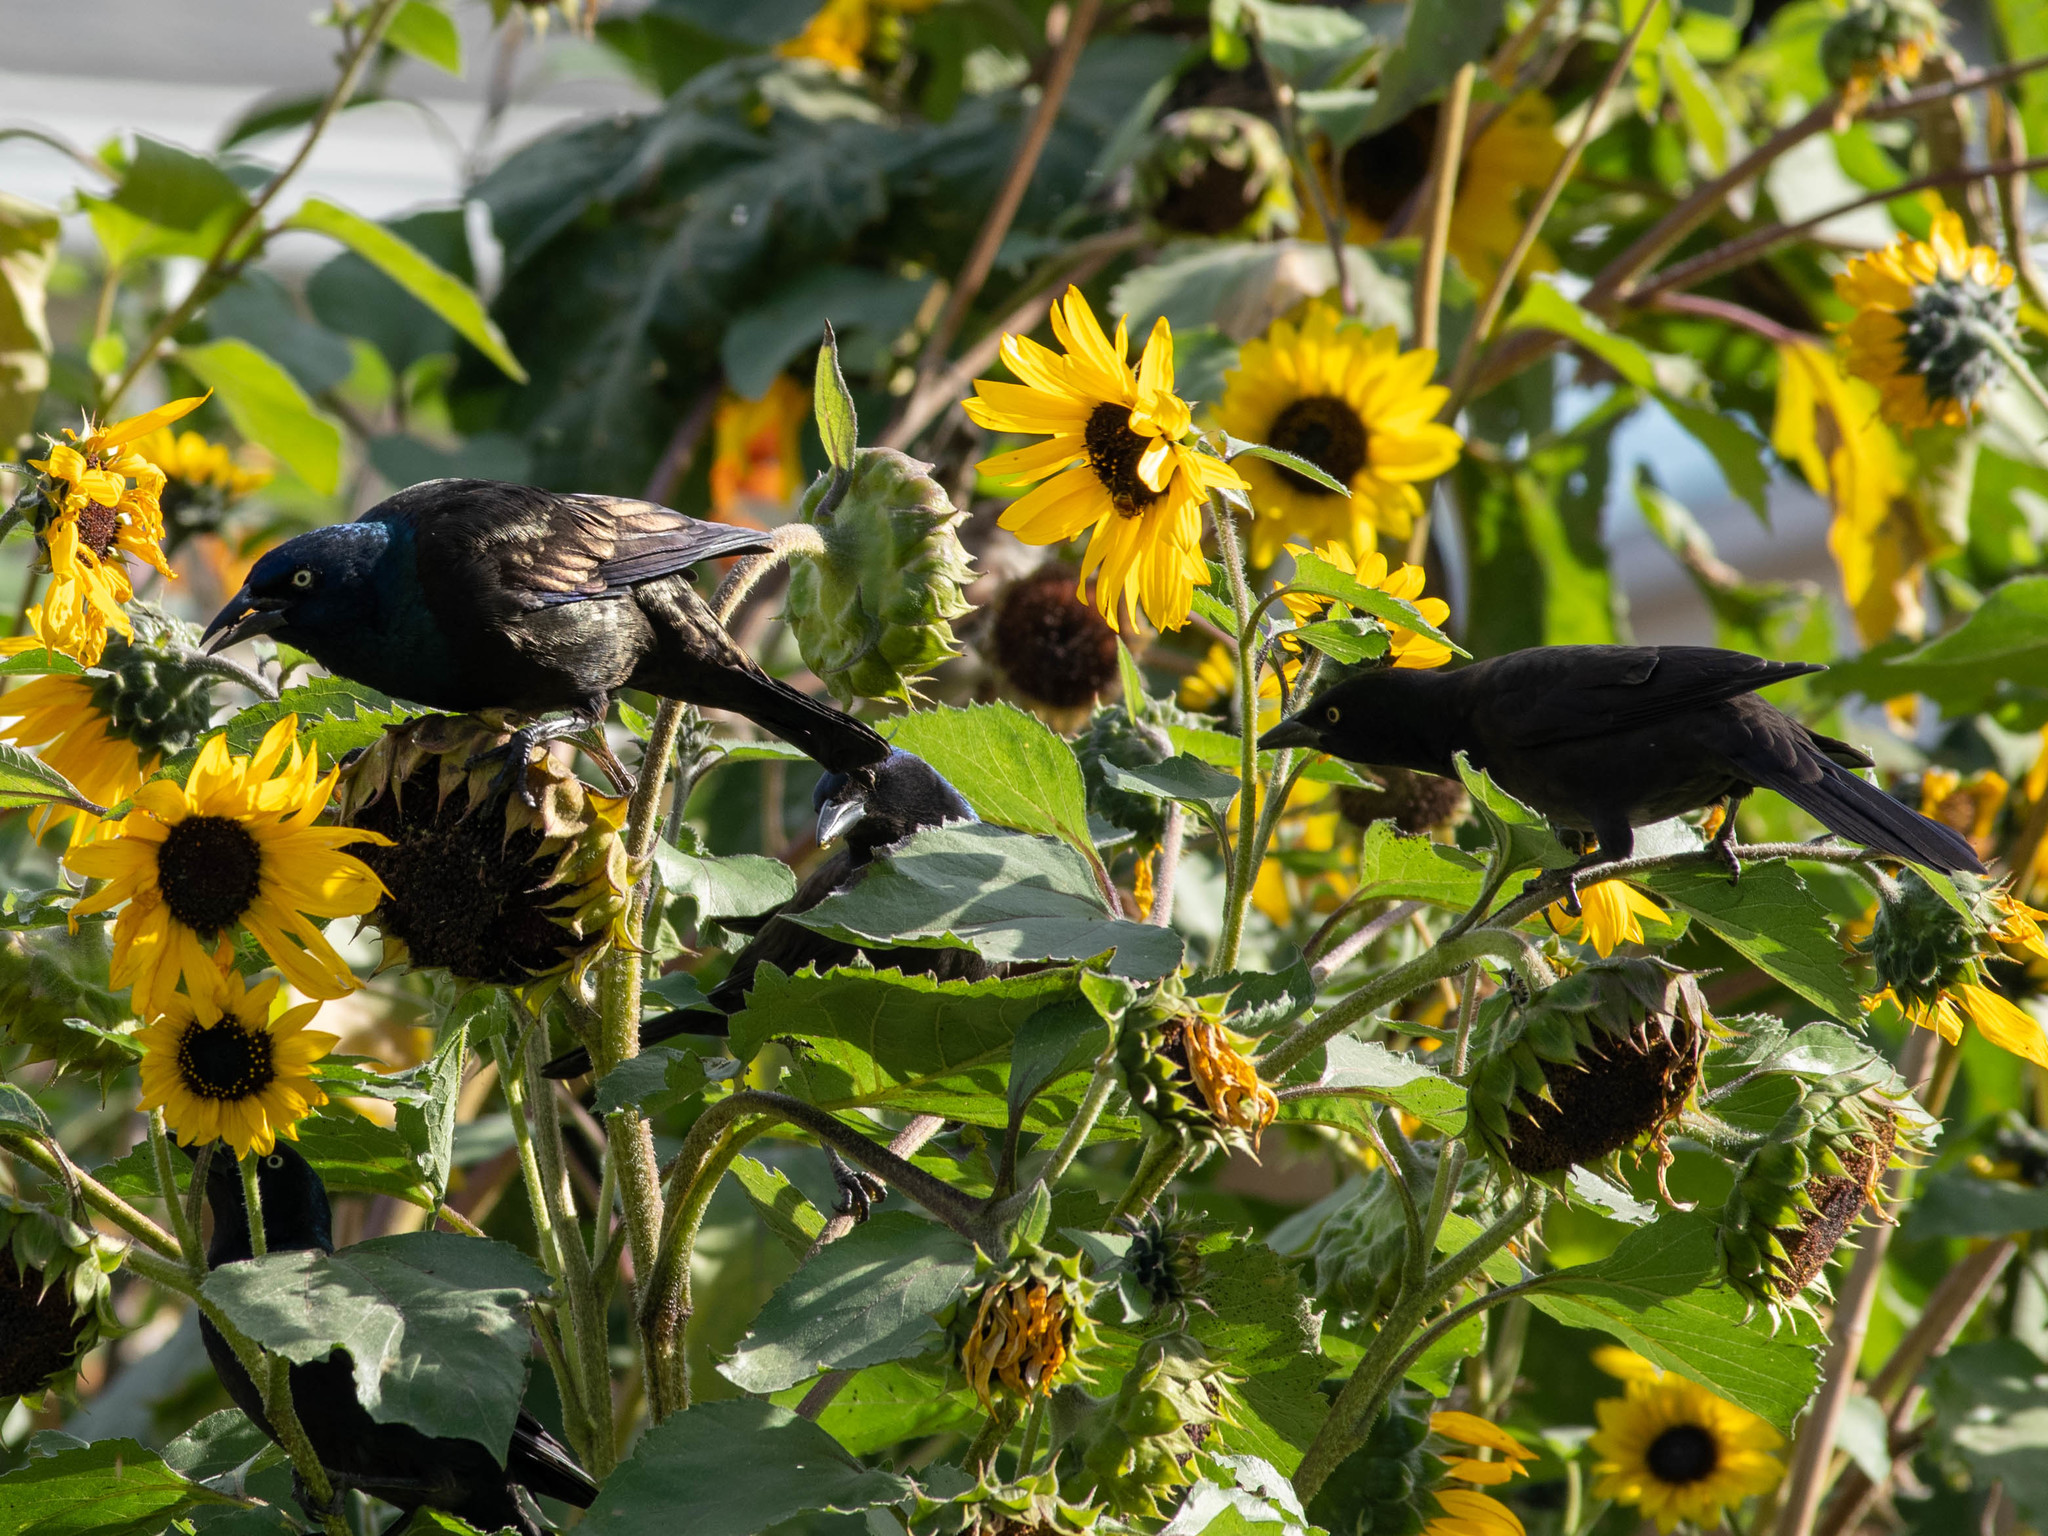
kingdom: Animalia
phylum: Chordata
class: Aves
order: Passeriformes
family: Icteridae
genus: Quiscalus
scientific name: Quiscalus quiscula
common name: Common grackle
